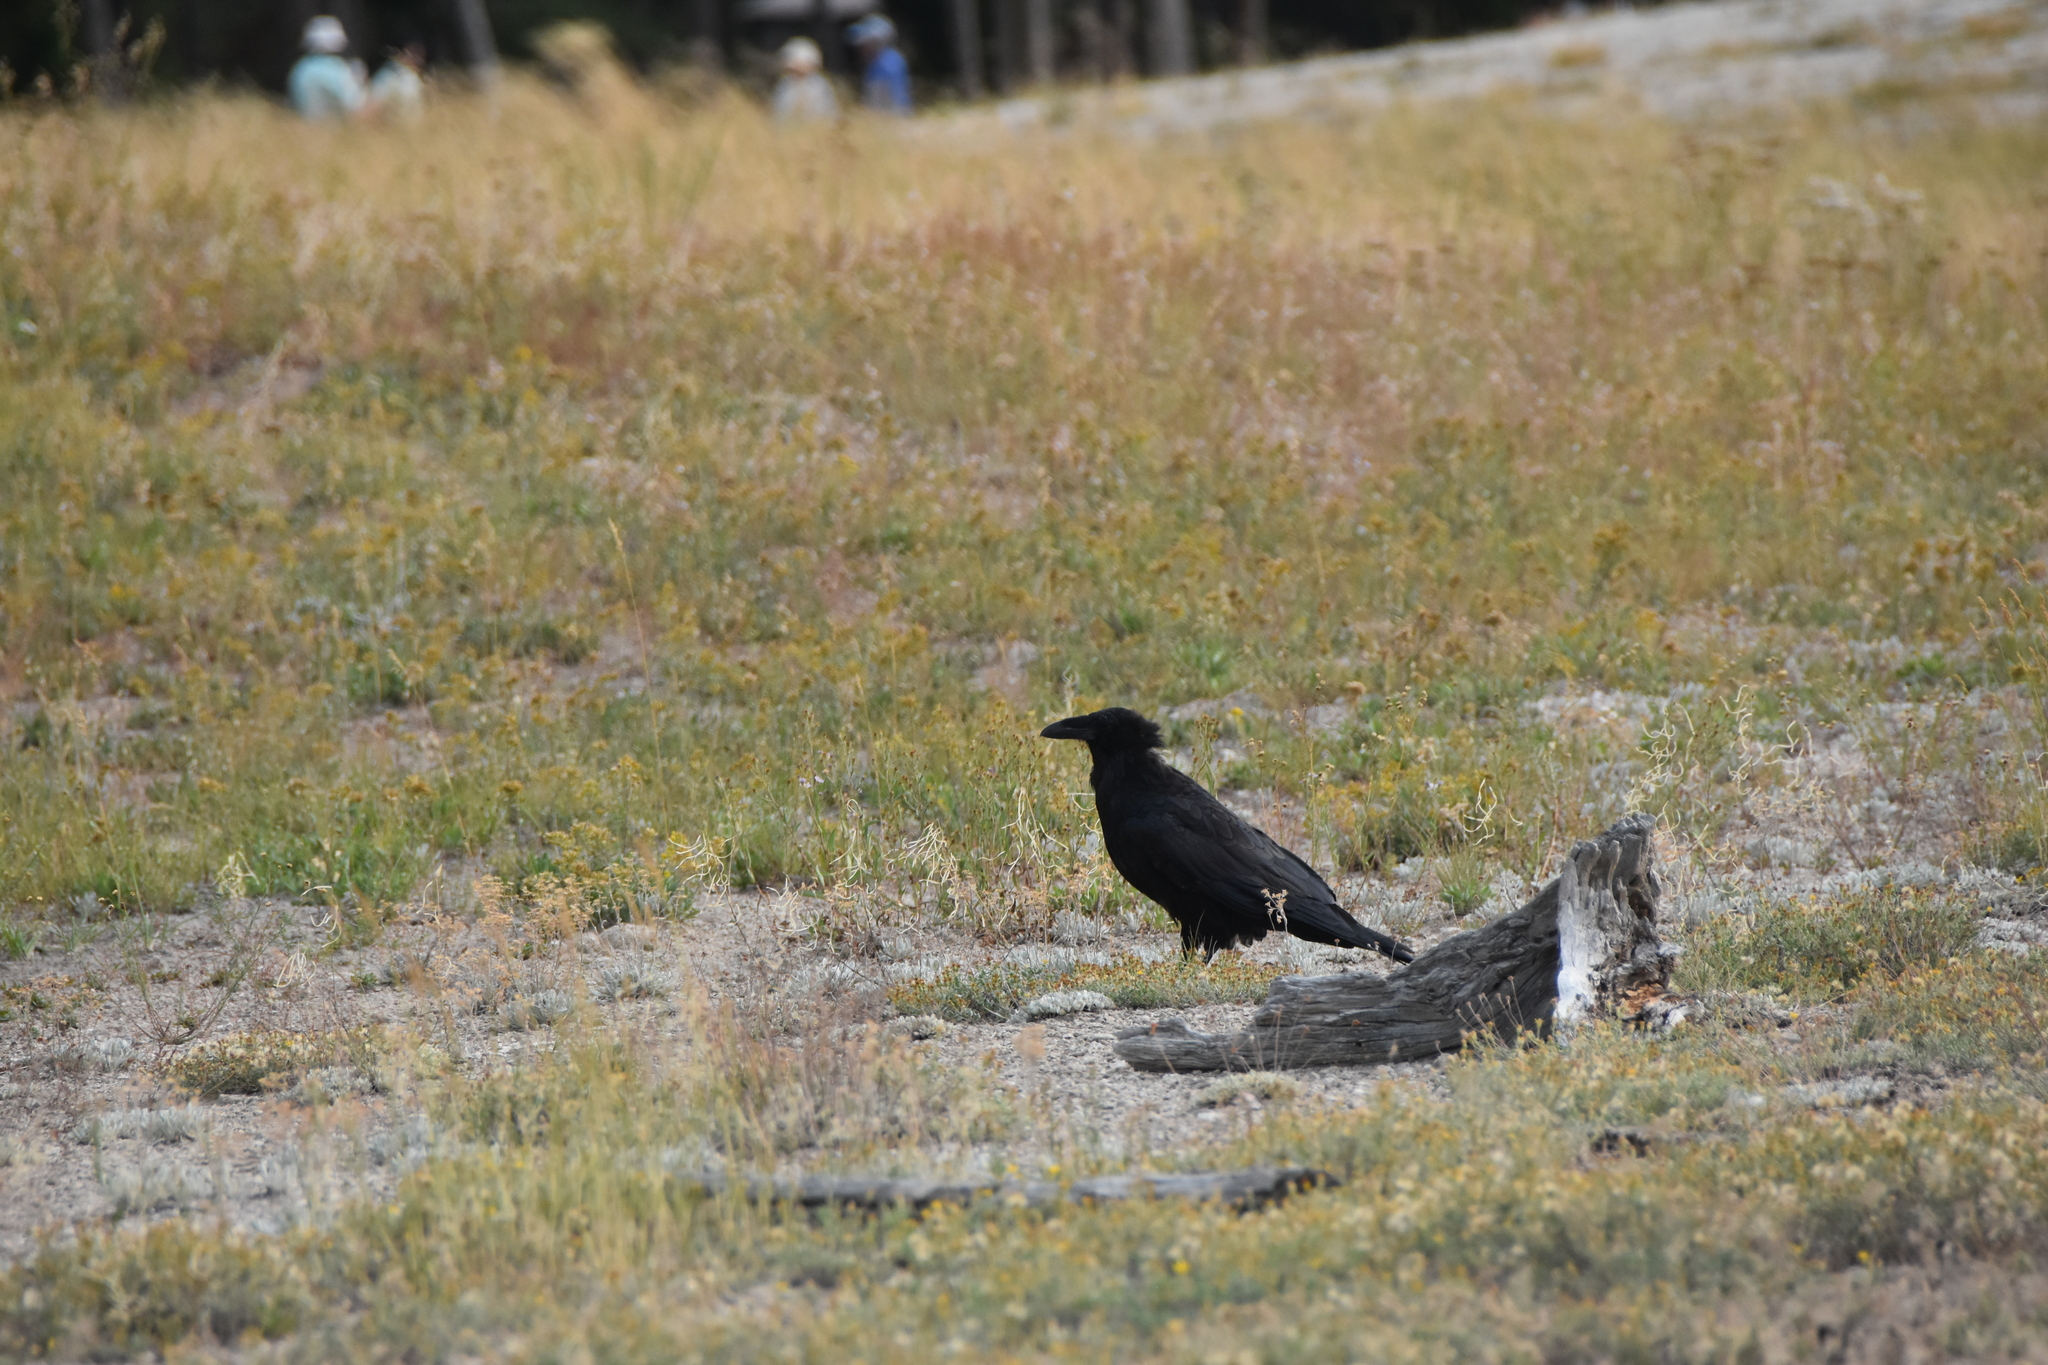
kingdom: Animalia
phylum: Chordata
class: Aves
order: Passeriformes
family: Corvidae
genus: Corvus
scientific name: Corvus corax
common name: Common raven
